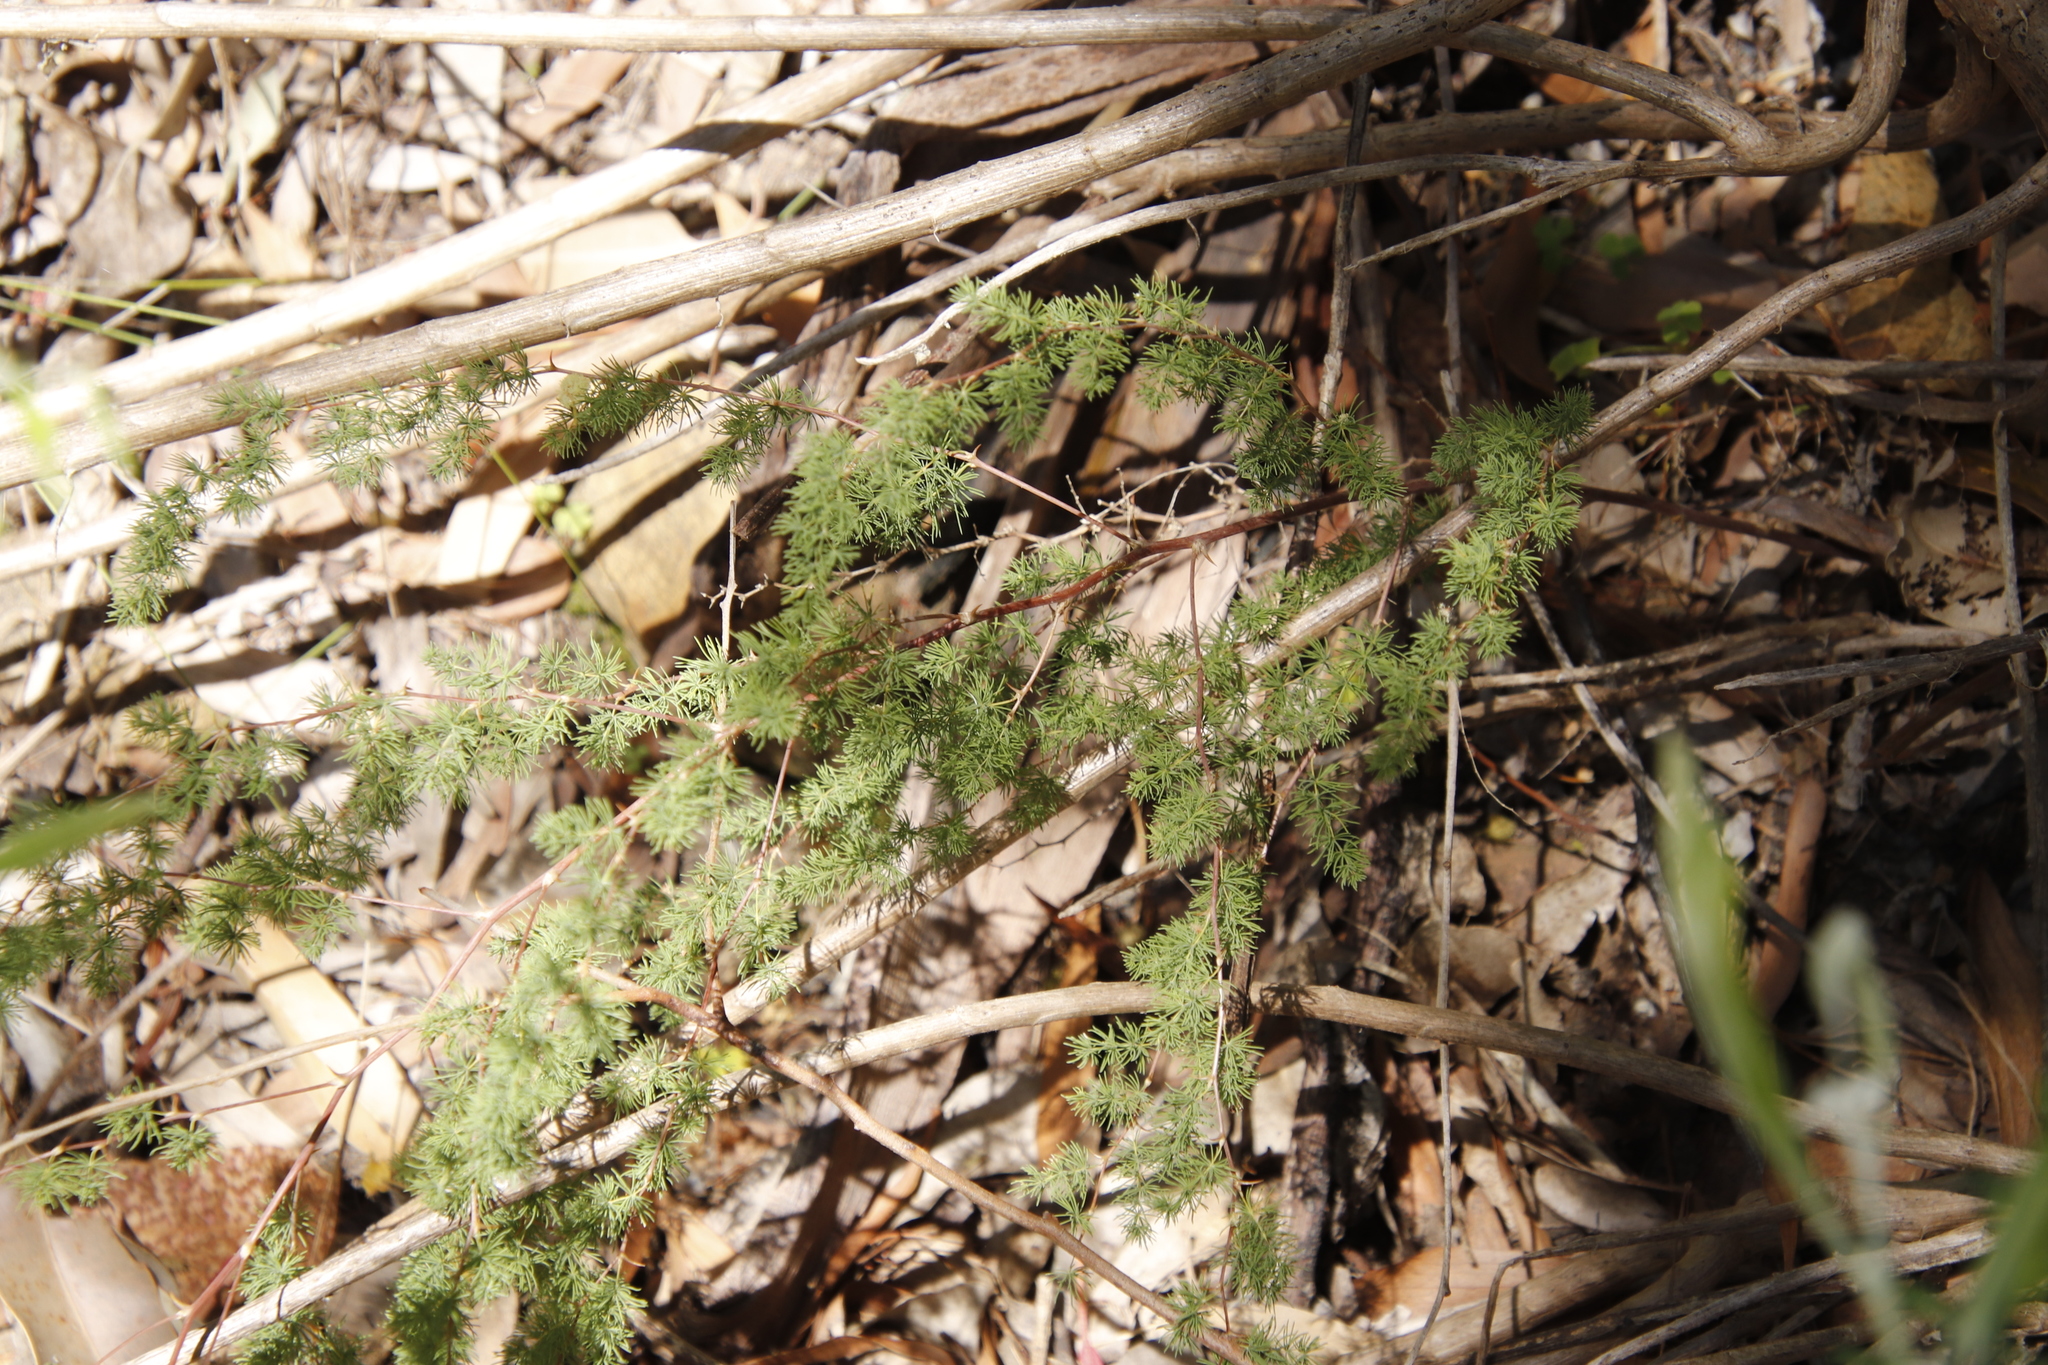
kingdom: Plantae
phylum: Tracheophyta
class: Liliopsida
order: Asparagales
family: Asparagaceae
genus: Asparagus
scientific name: Asparagus rubicundus
